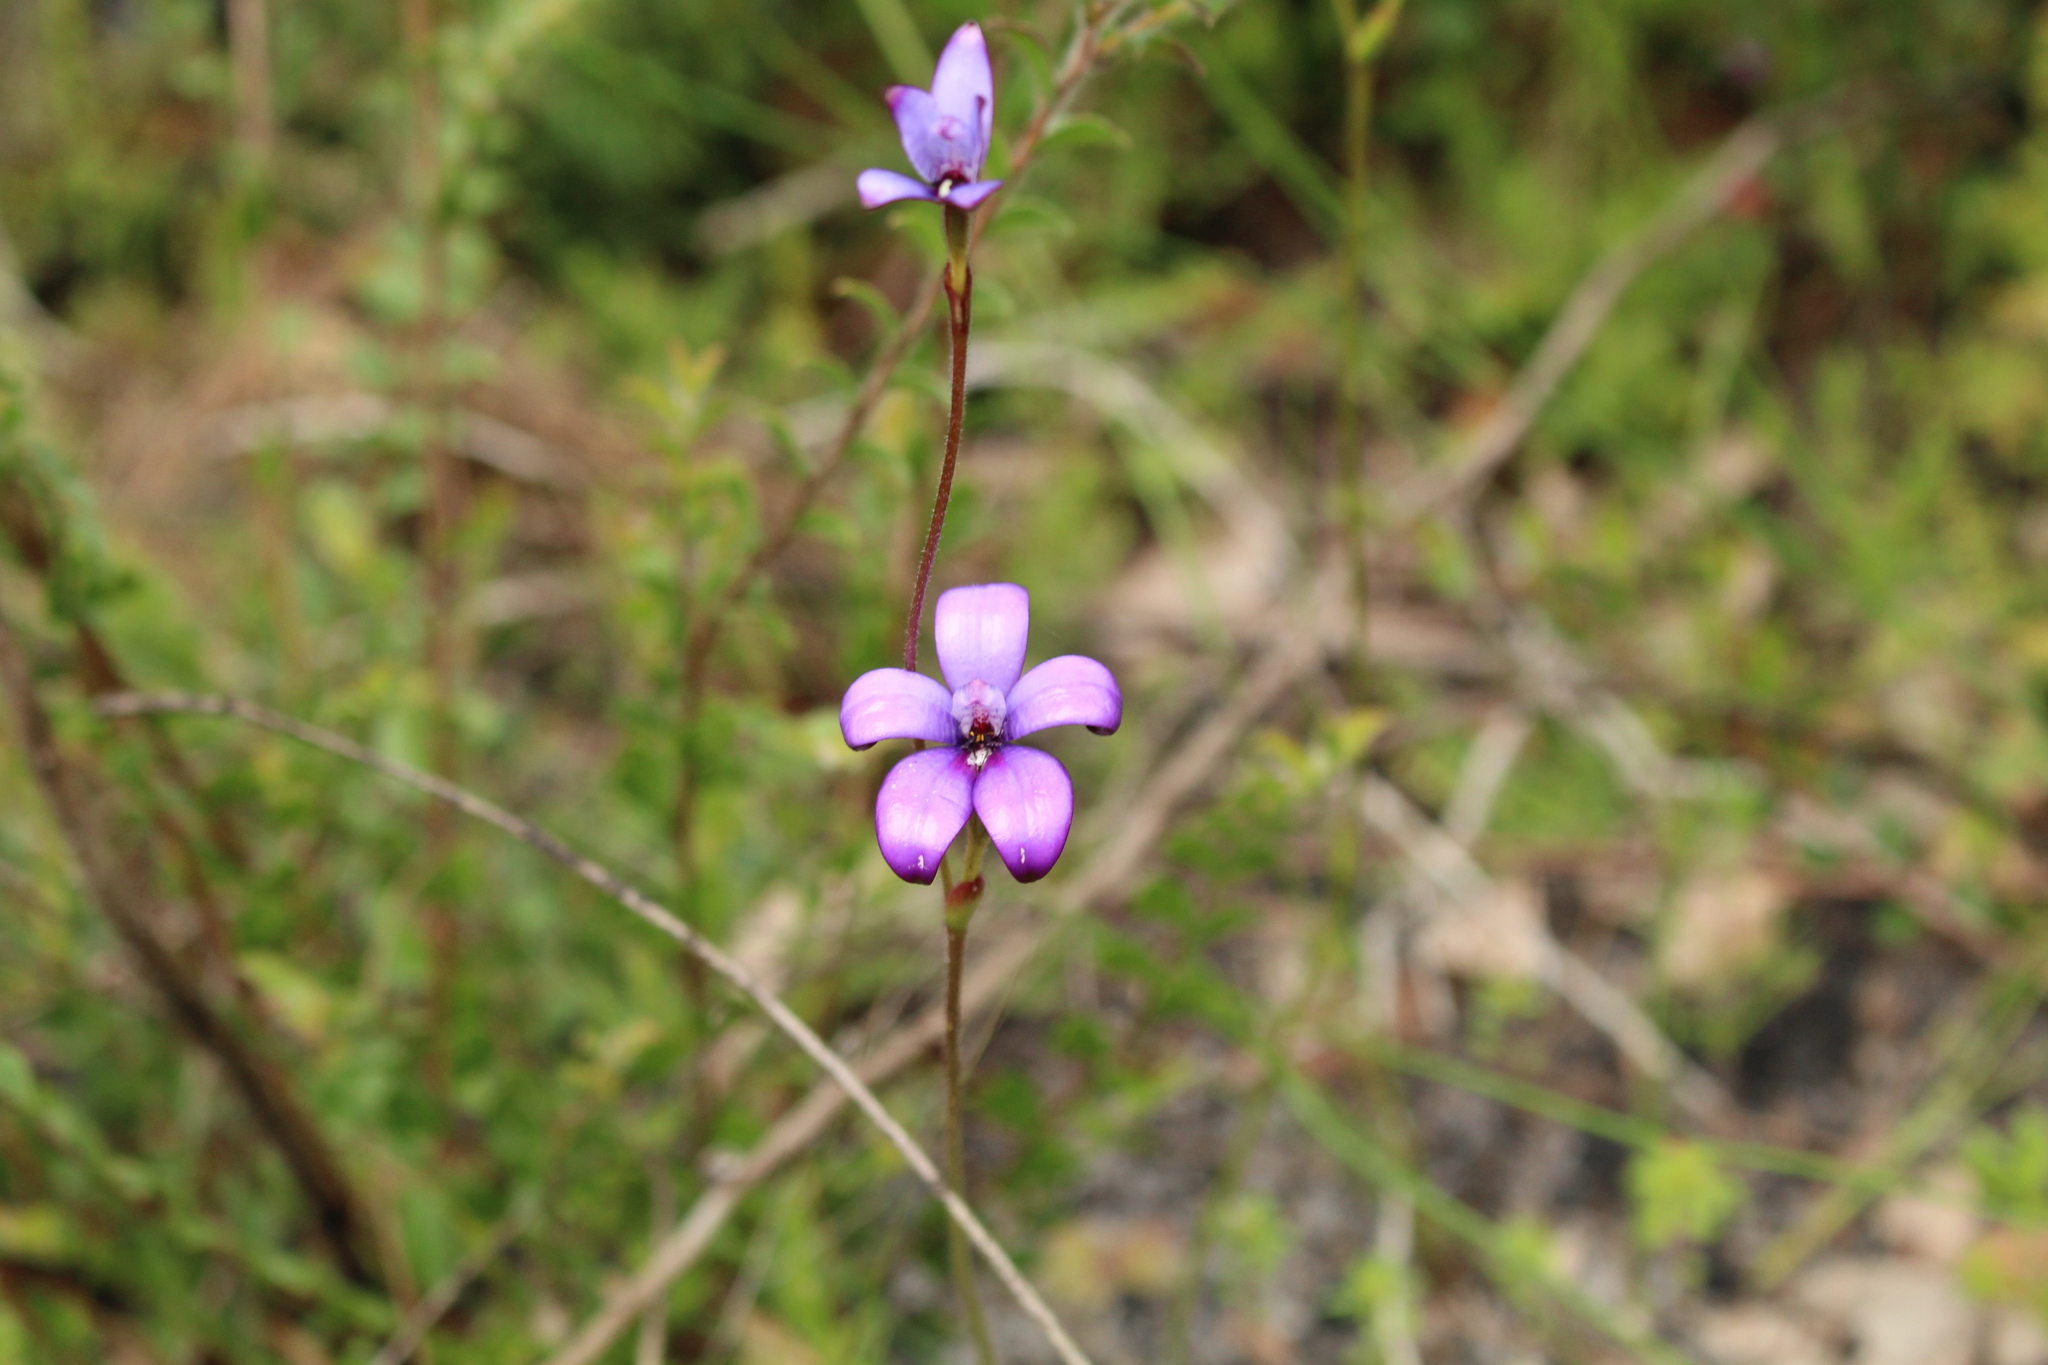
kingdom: Plantae
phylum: Tracheophyta
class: Liliopsida
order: Asparagales
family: Orchidaceae
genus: Caladenia
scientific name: Caladenia brunonis
